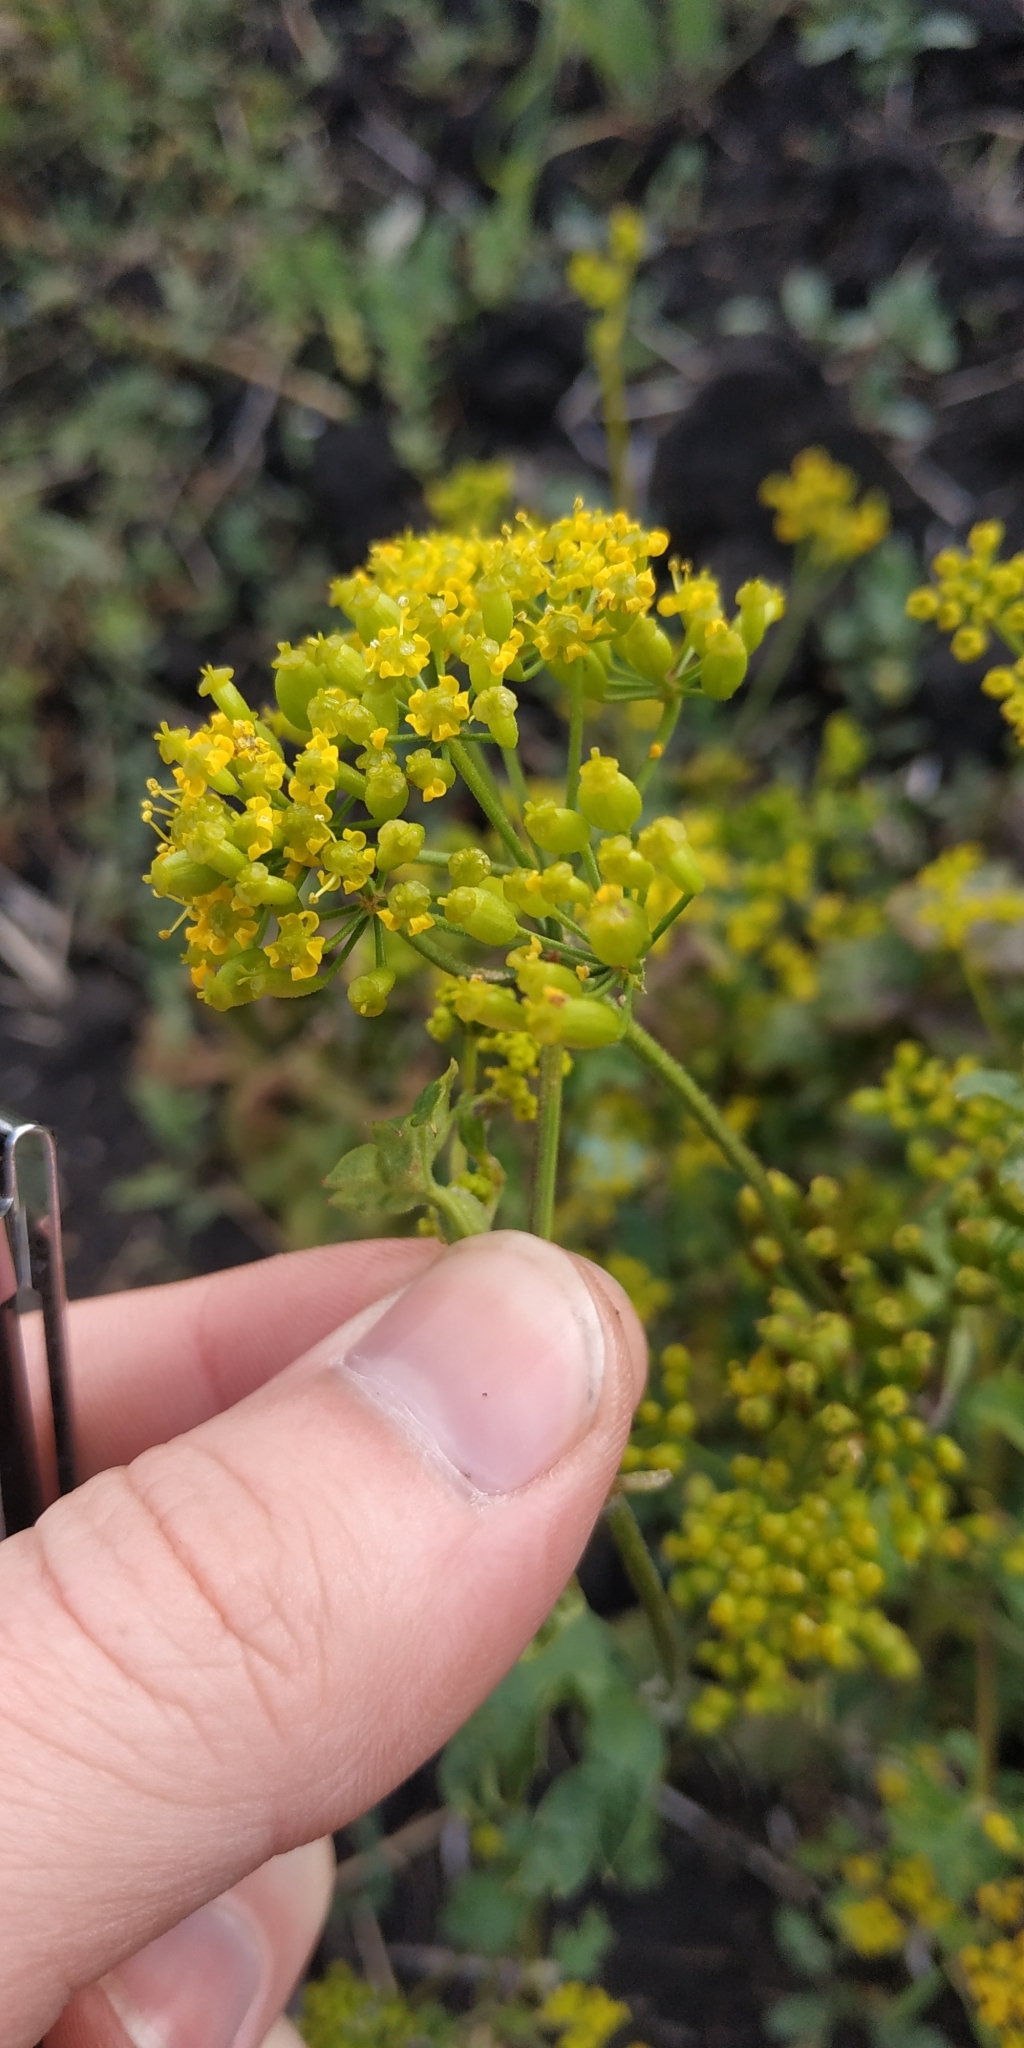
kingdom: Plantae
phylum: Tracheophyta
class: Magnoliopsida
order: Apiales
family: Apiaceae
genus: Pastinaca
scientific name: Pastinaca sativa
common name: Wild parsnip
